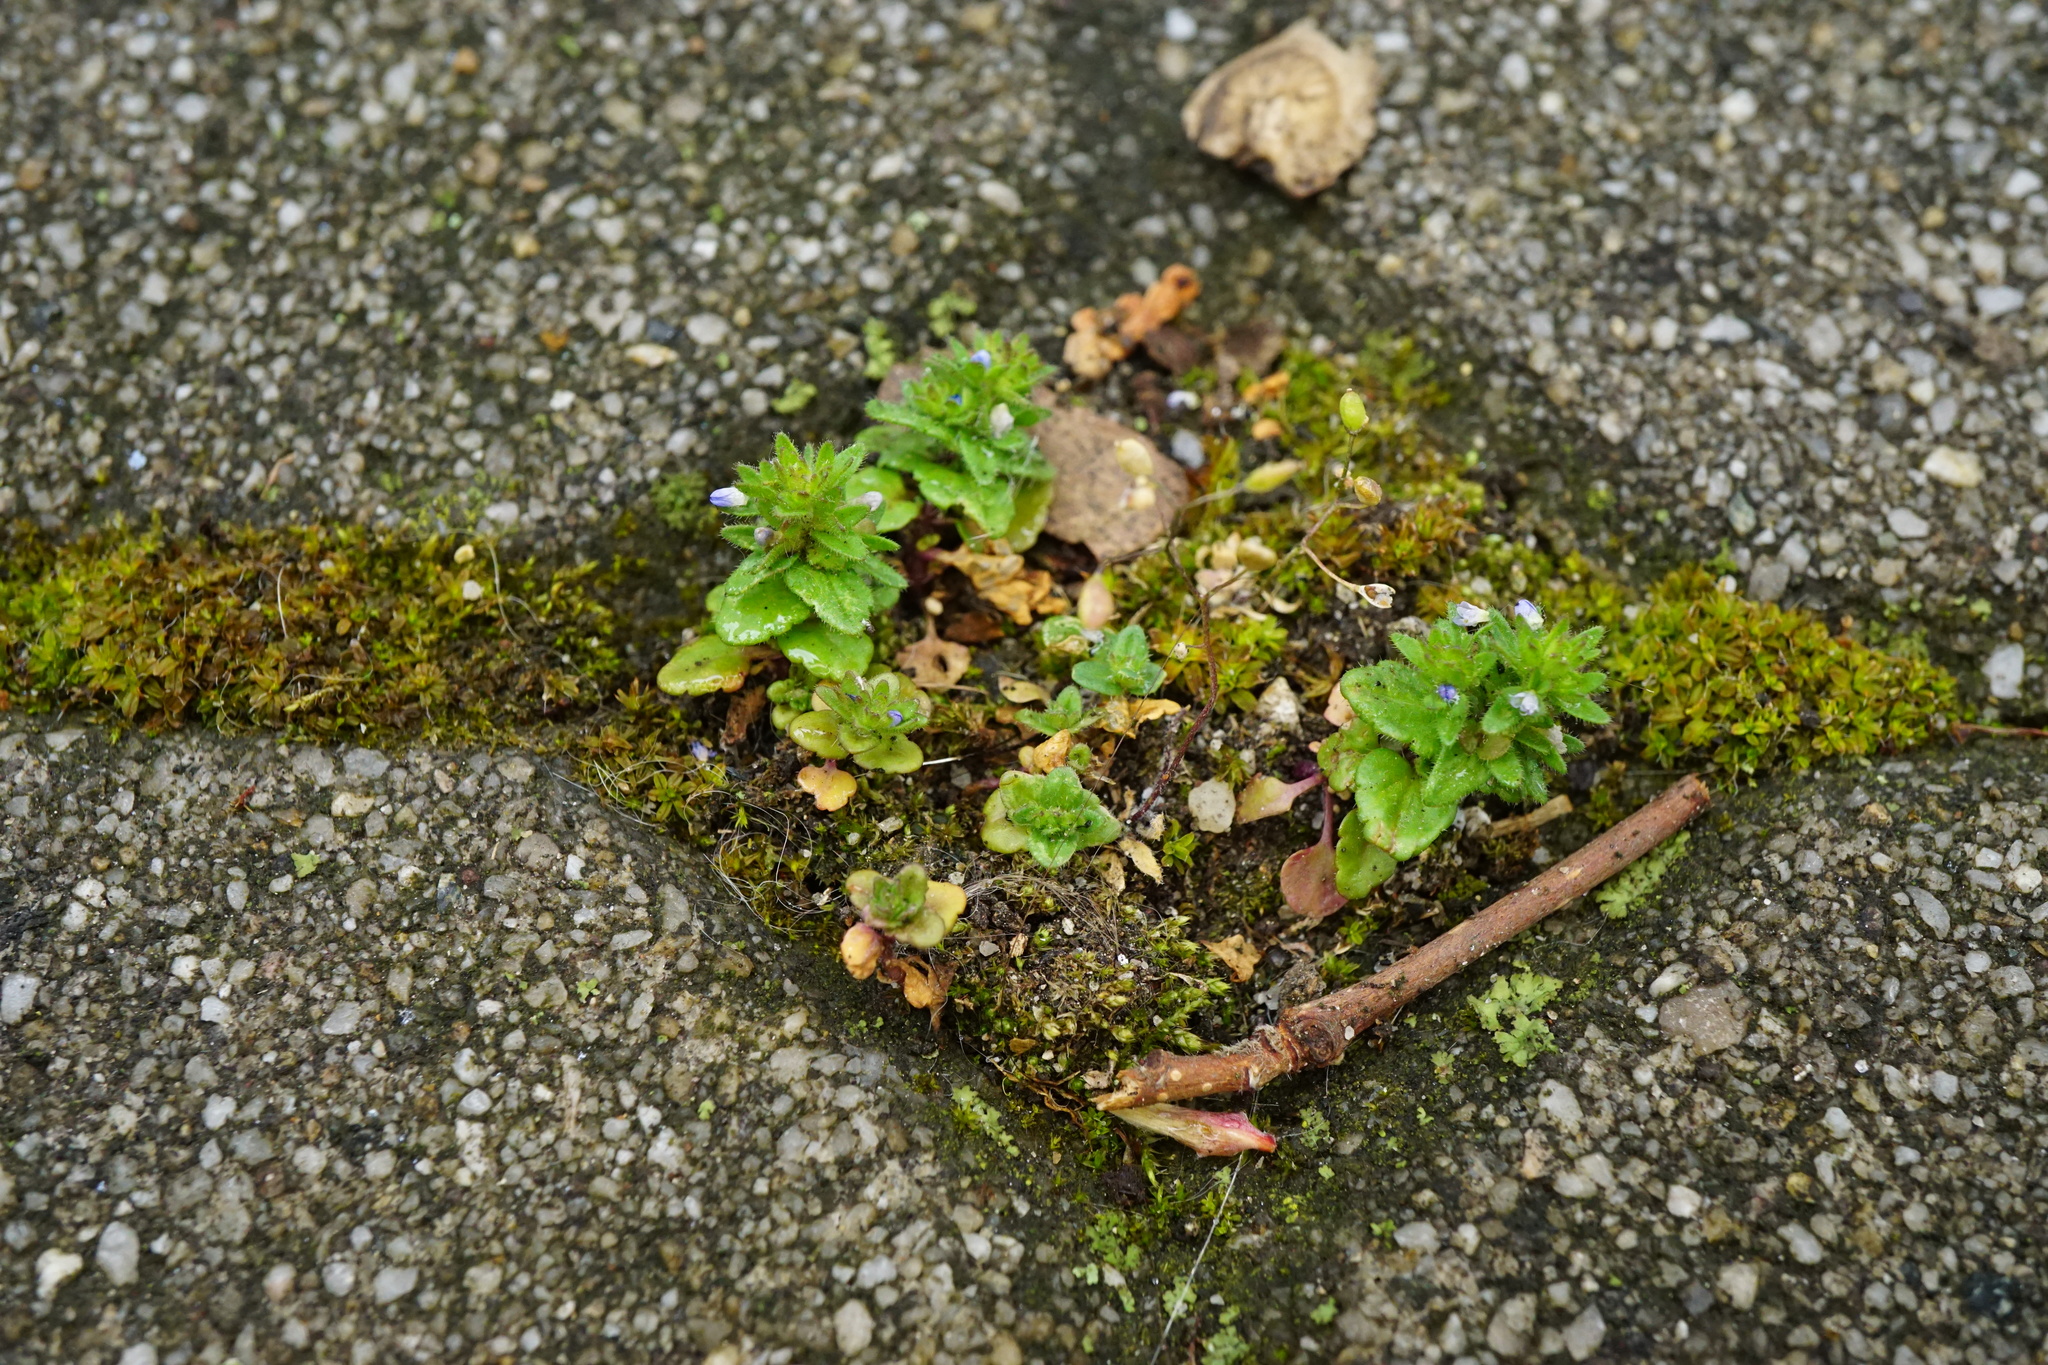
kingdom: Plantae
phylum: Tracheophyta
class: Magnoliopsida
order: Lamiales
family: Plantaginaceae
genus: Veronica
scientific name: Veronica arvensis
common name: Corn speedwell
